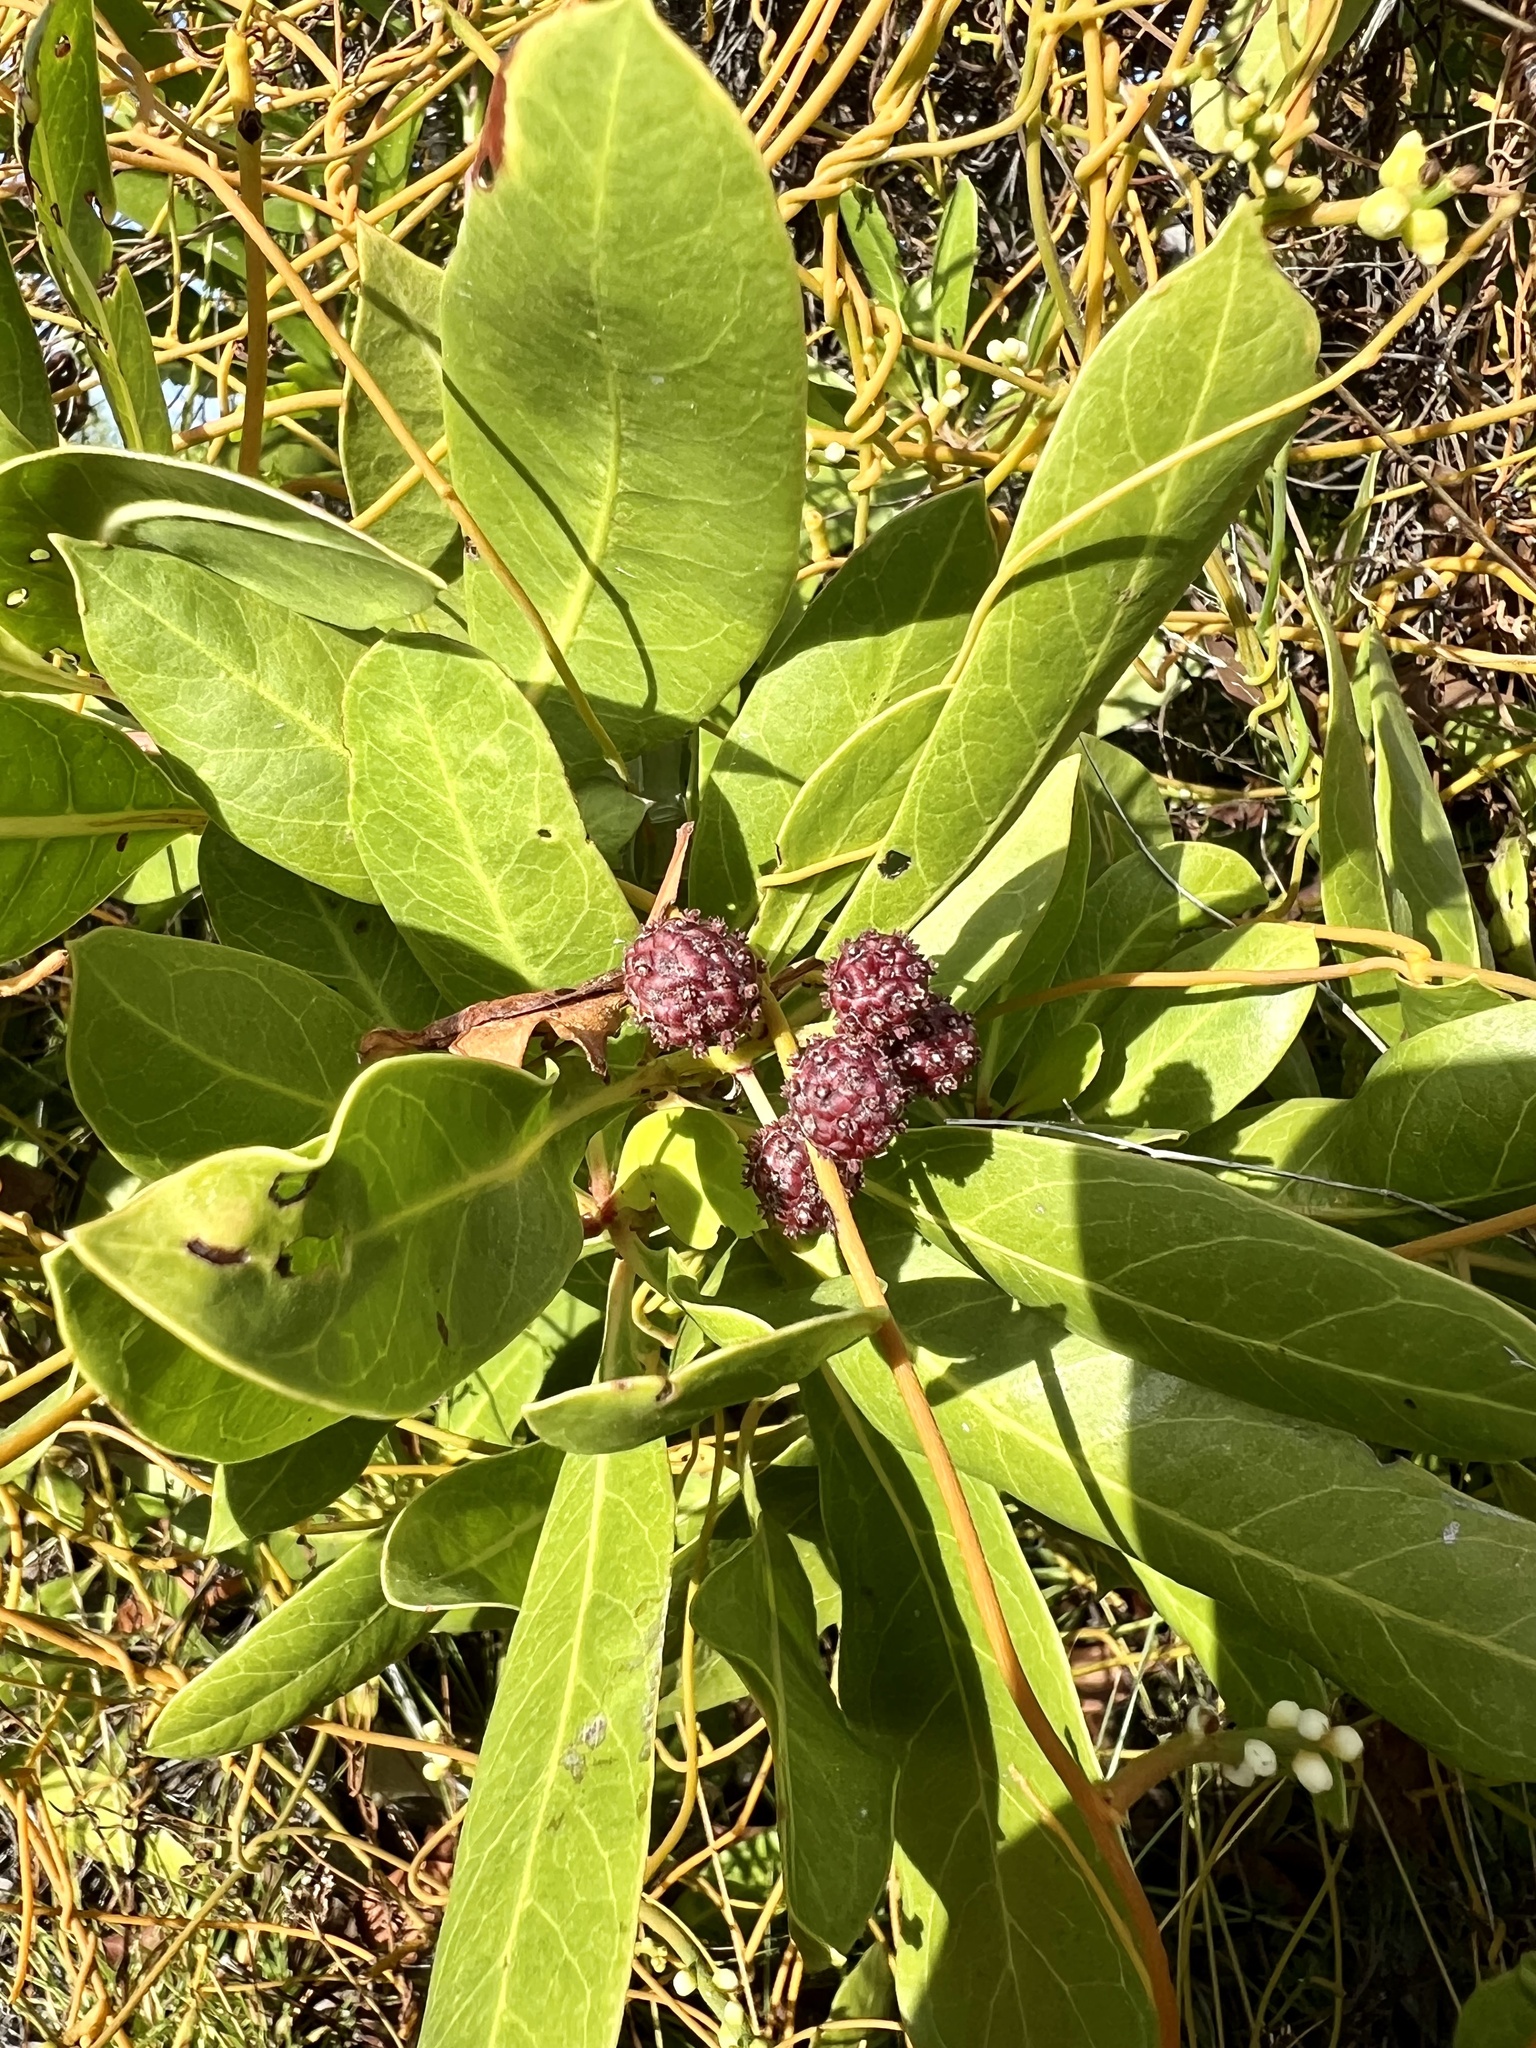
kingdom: Plantae
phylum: Tracheophyta
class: Magnoliopsida
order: Myrtales
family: Combretaceae
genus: Conocarpus
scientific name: Conocarpus erectus
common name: Button mangrove
